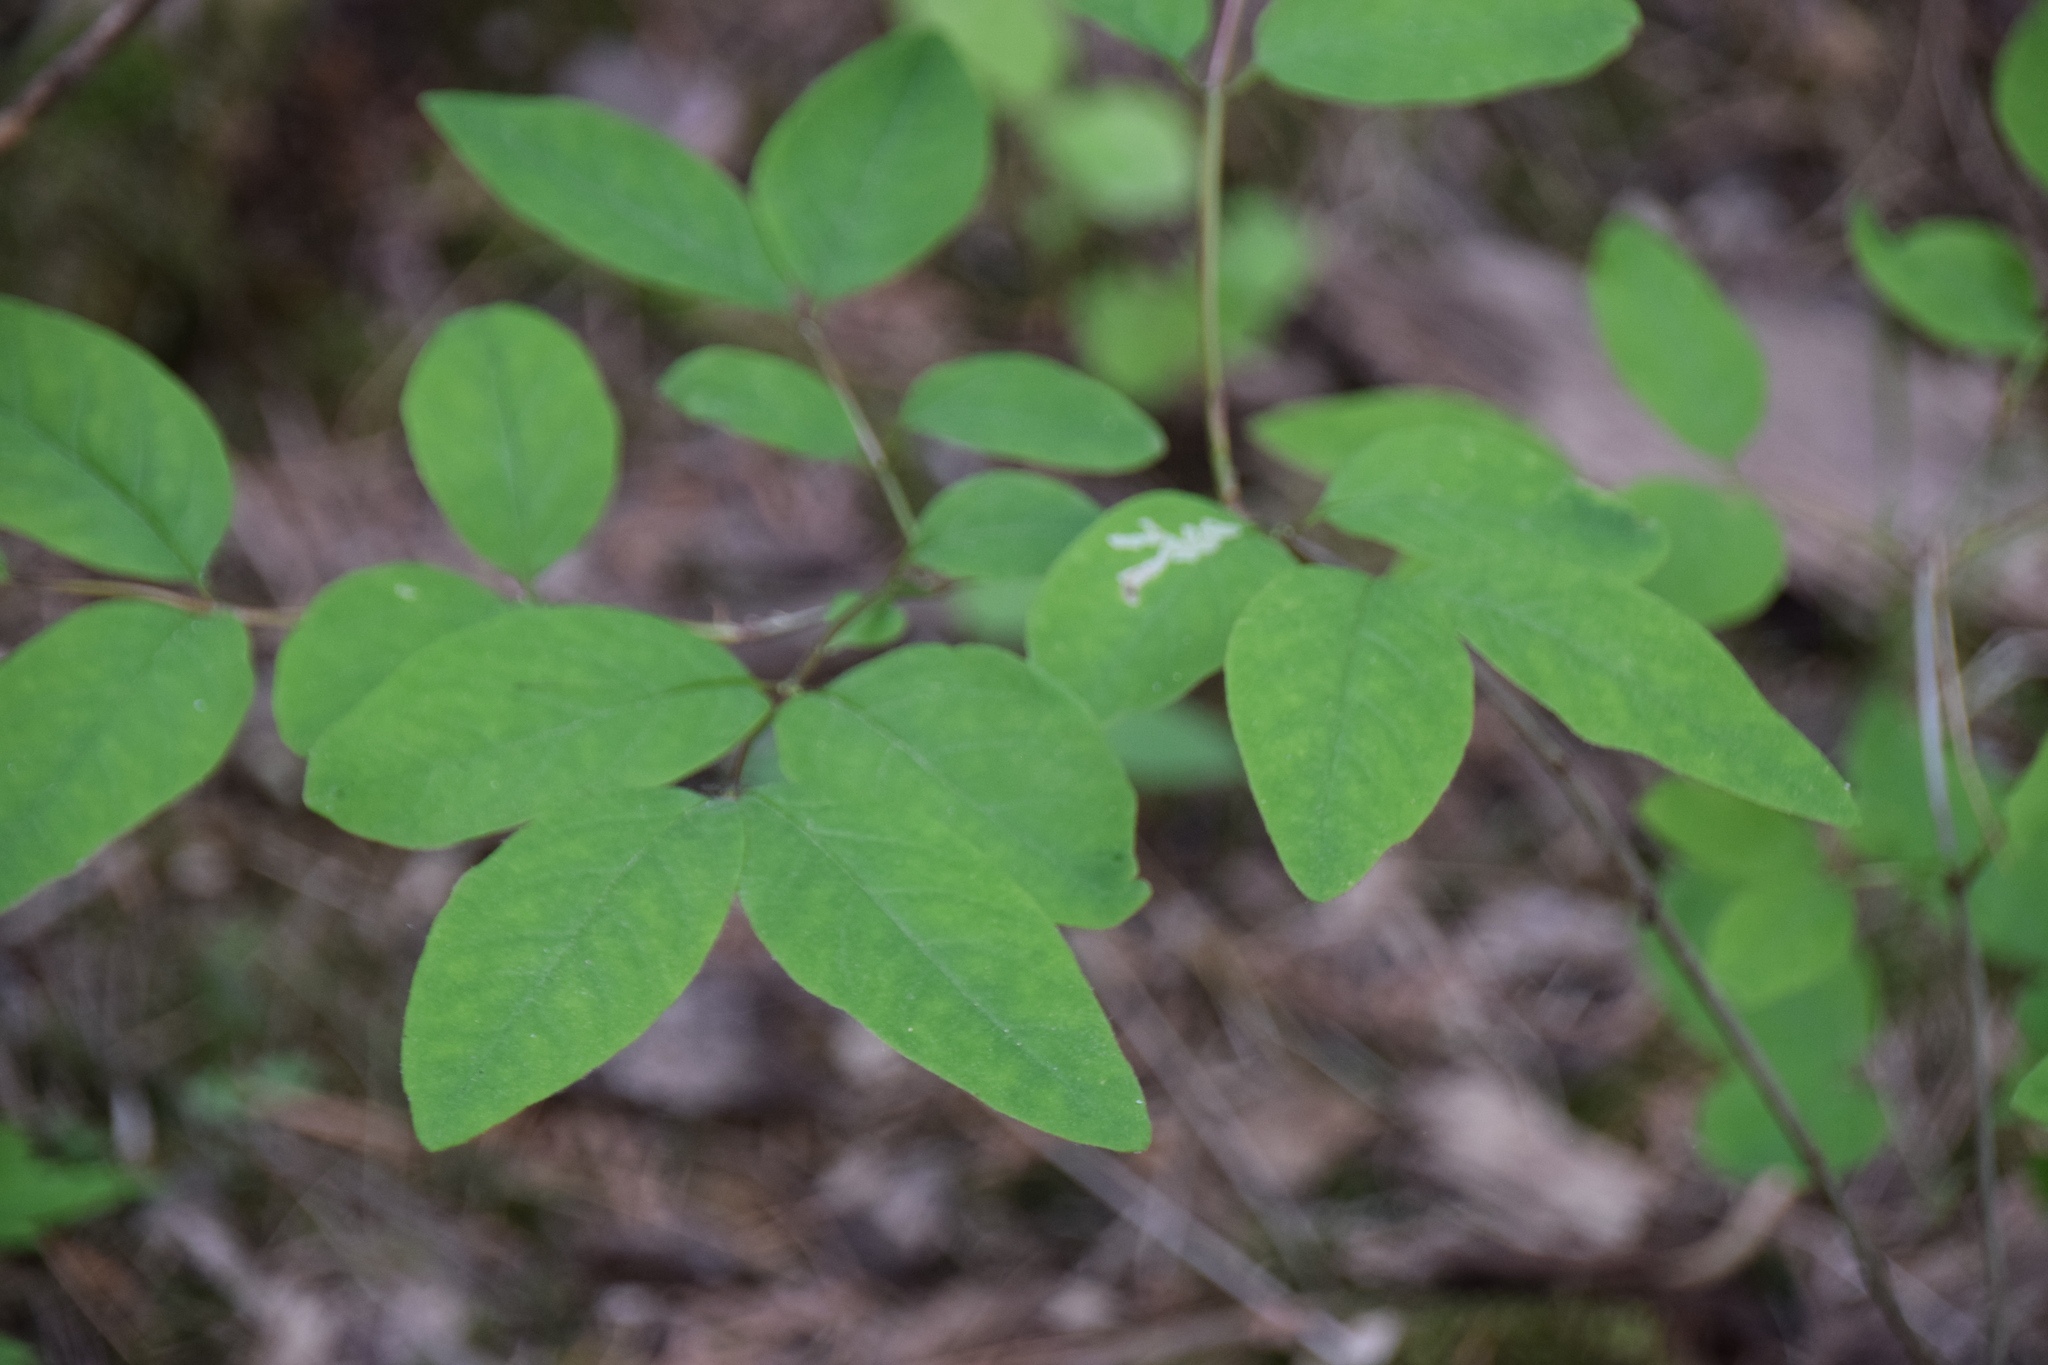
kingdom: Plantae
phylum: Tracheophyta
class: Magnoliopsida
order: Dipsacales
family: Caprifoliaceae
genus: Lonicera
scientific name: Lonicera canadensis
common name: American fly-honeysuckle
